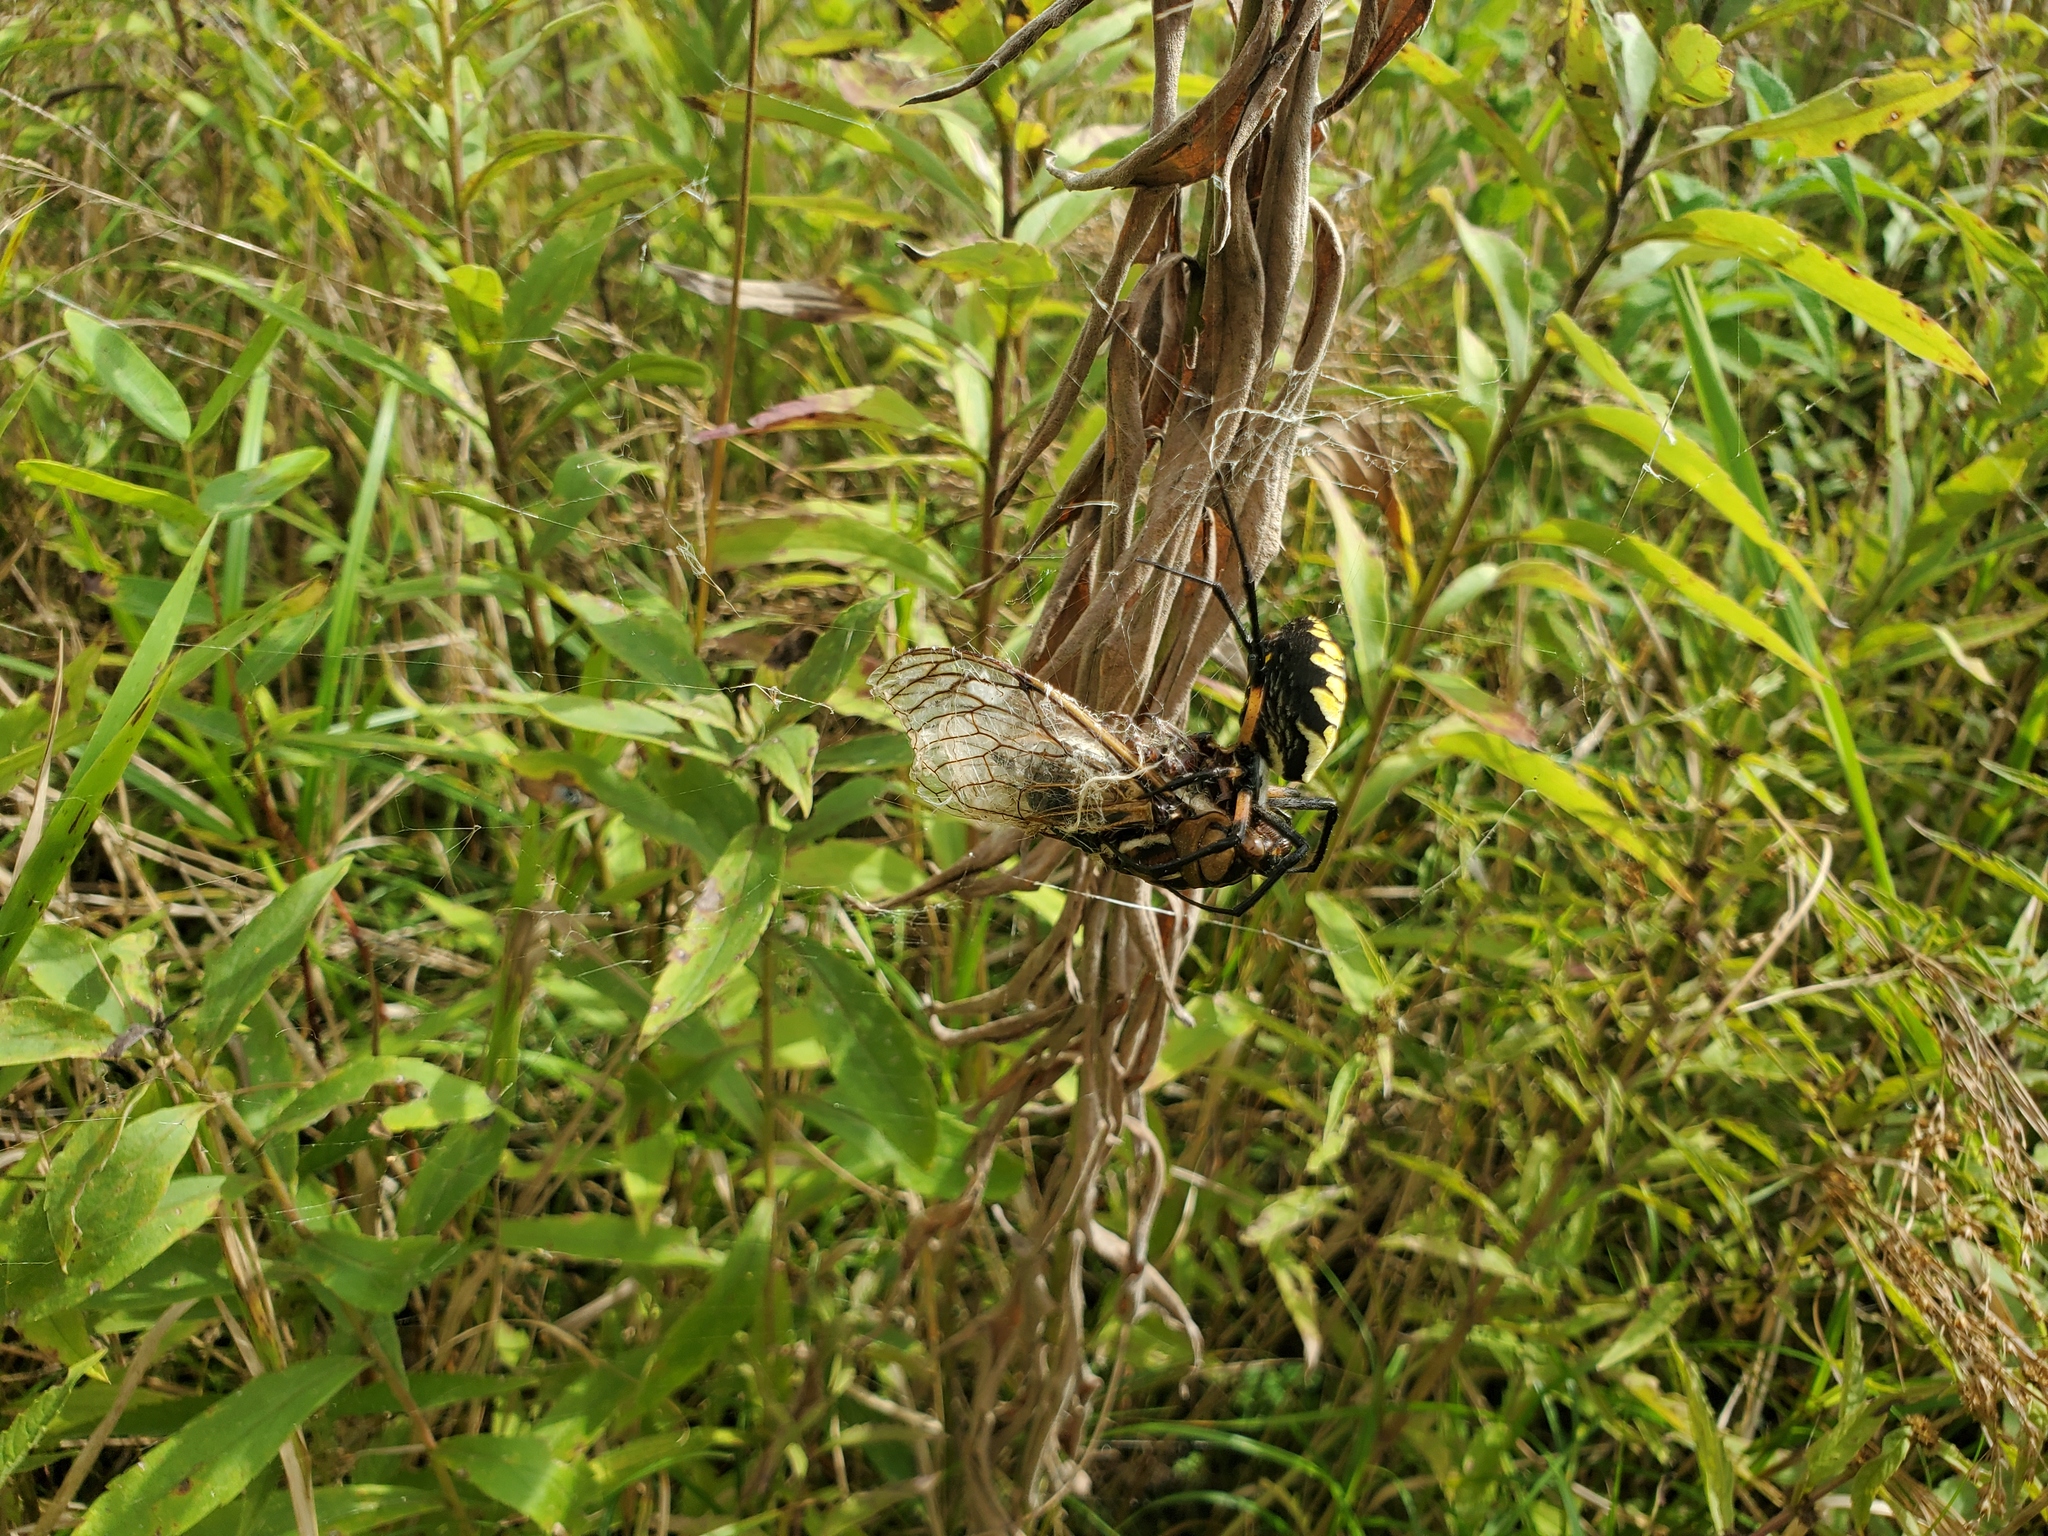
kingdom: Animalia
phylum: Arthropoda
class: Arachnida
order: Araneae
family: Araneidae
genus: Argiope
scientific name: Argiope aurantia
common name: Orb weavers
